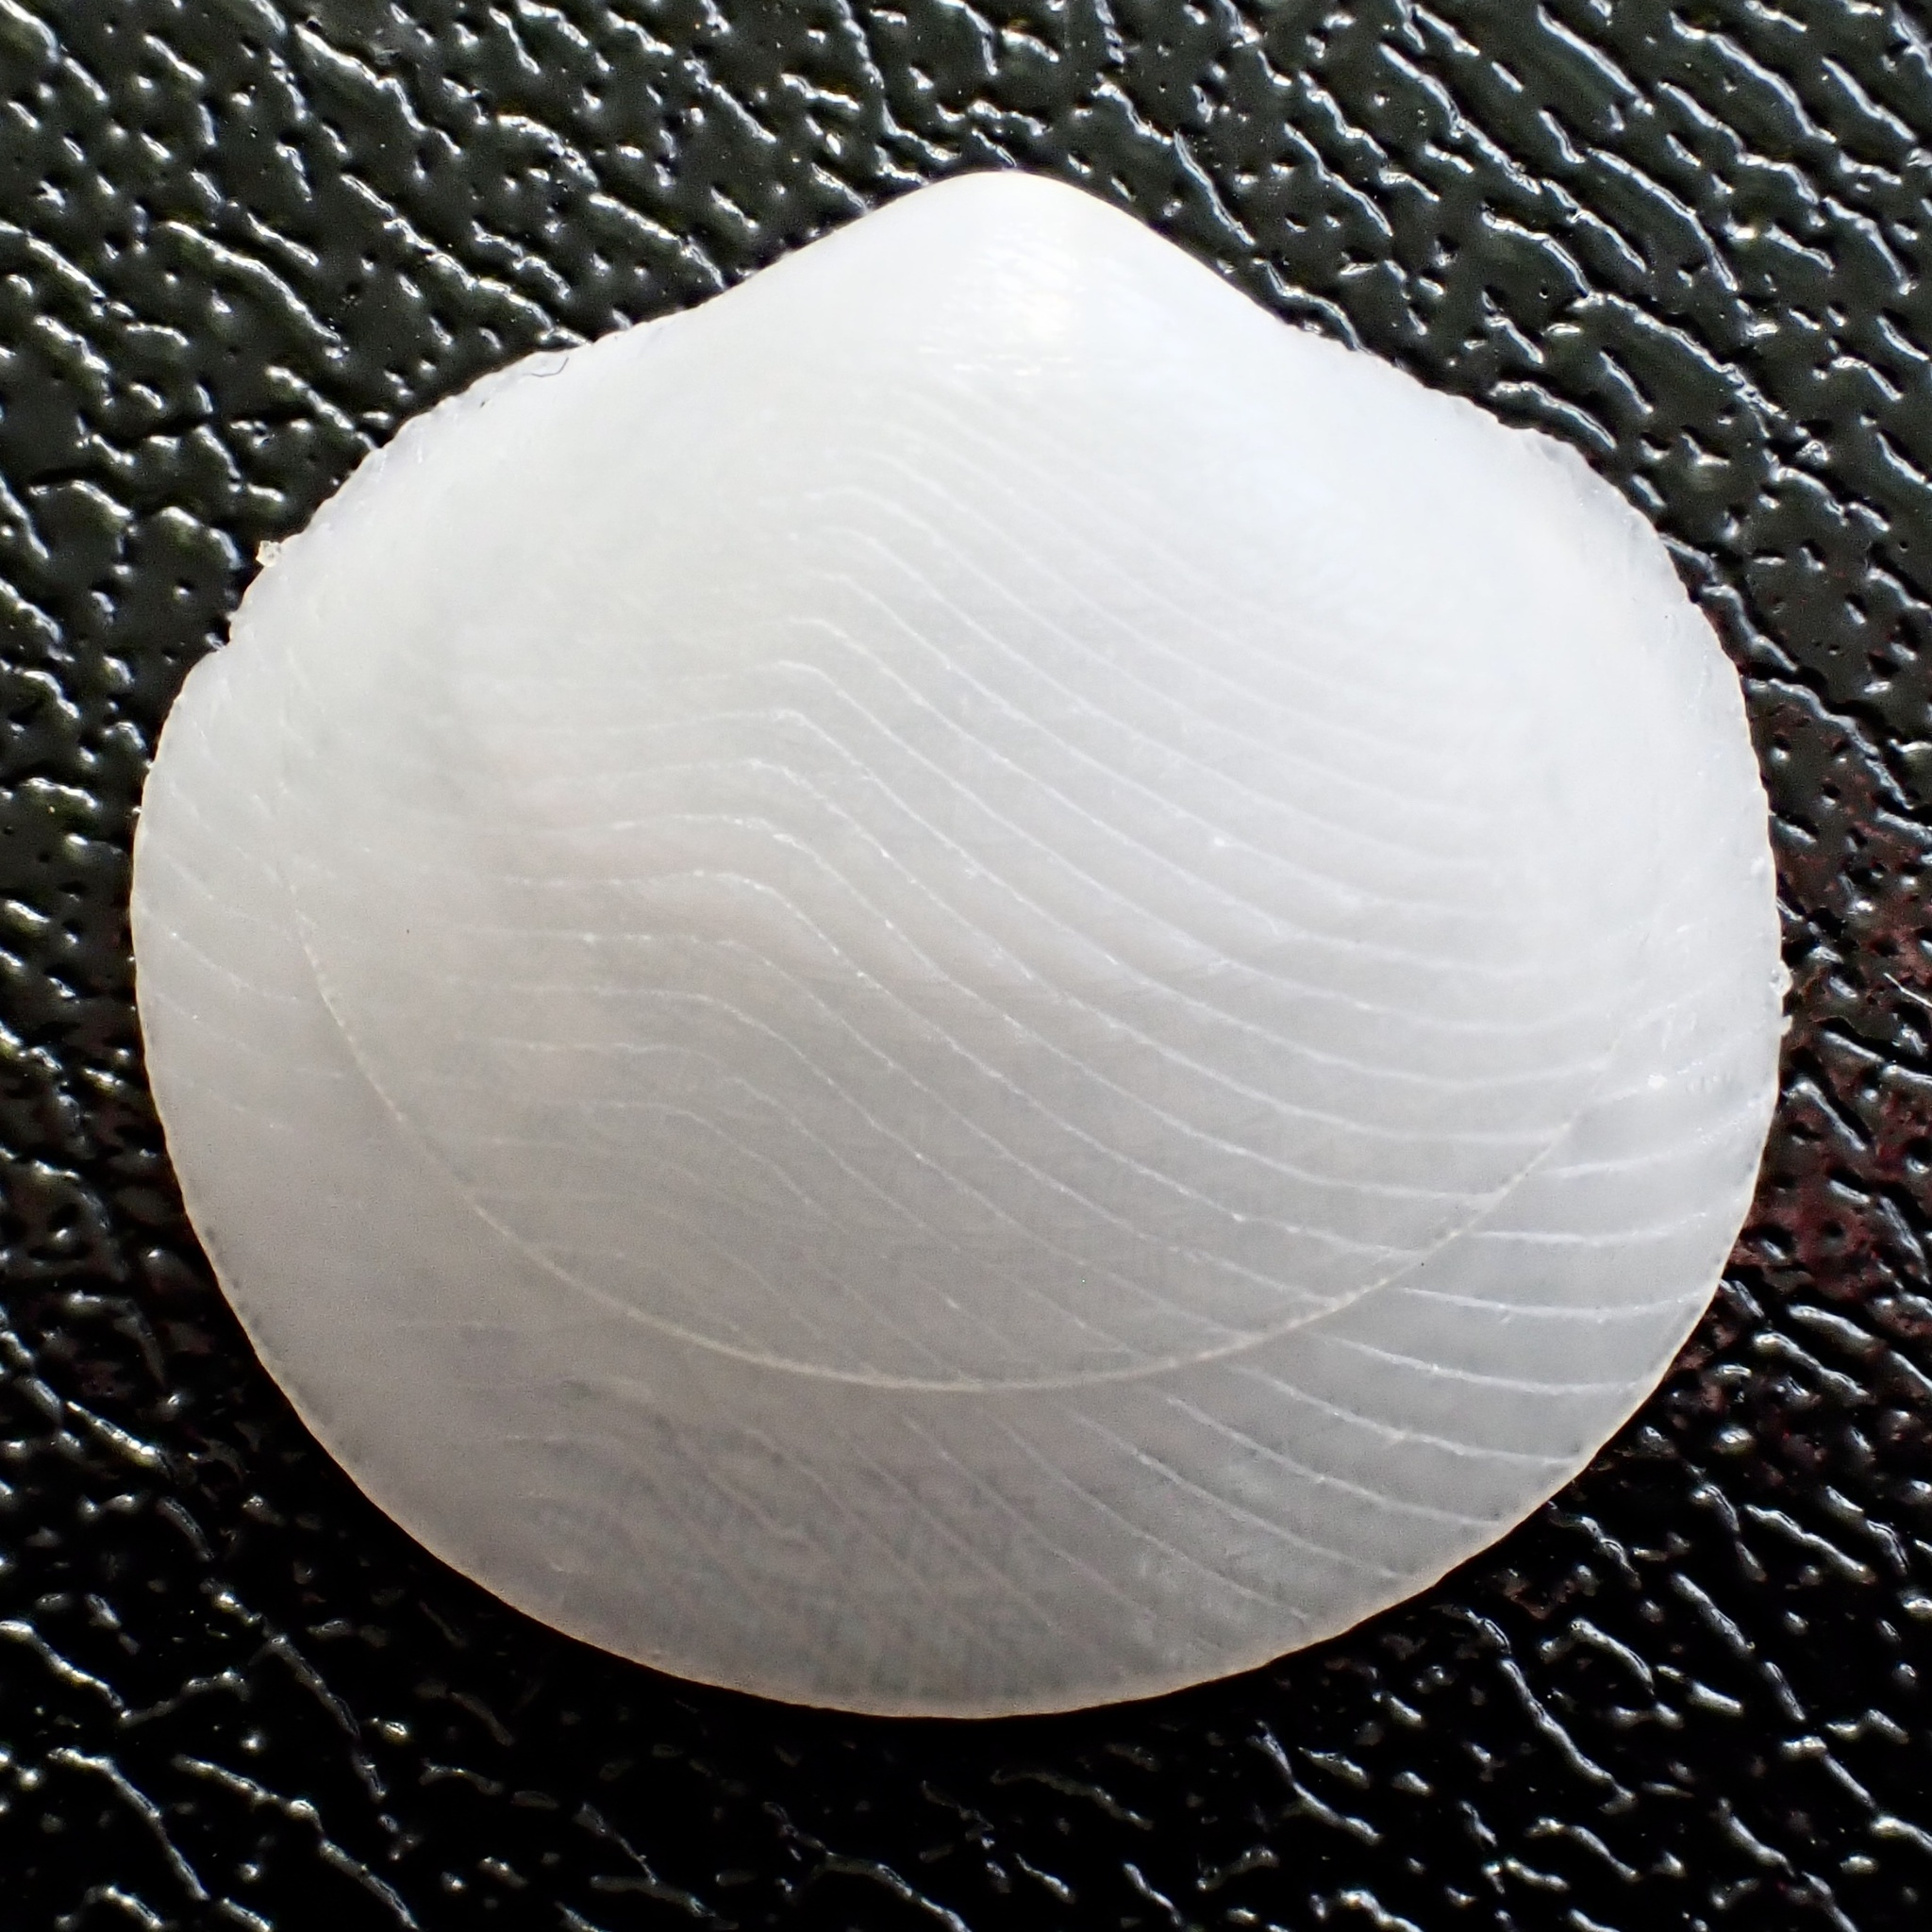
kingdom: Animalia
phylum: Mollusca
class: Bivalvia
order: Lucinida
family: Lucinidae
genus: Divalinga
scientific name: Divalinga quadrisulcata
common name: Cross-hatched lucine
